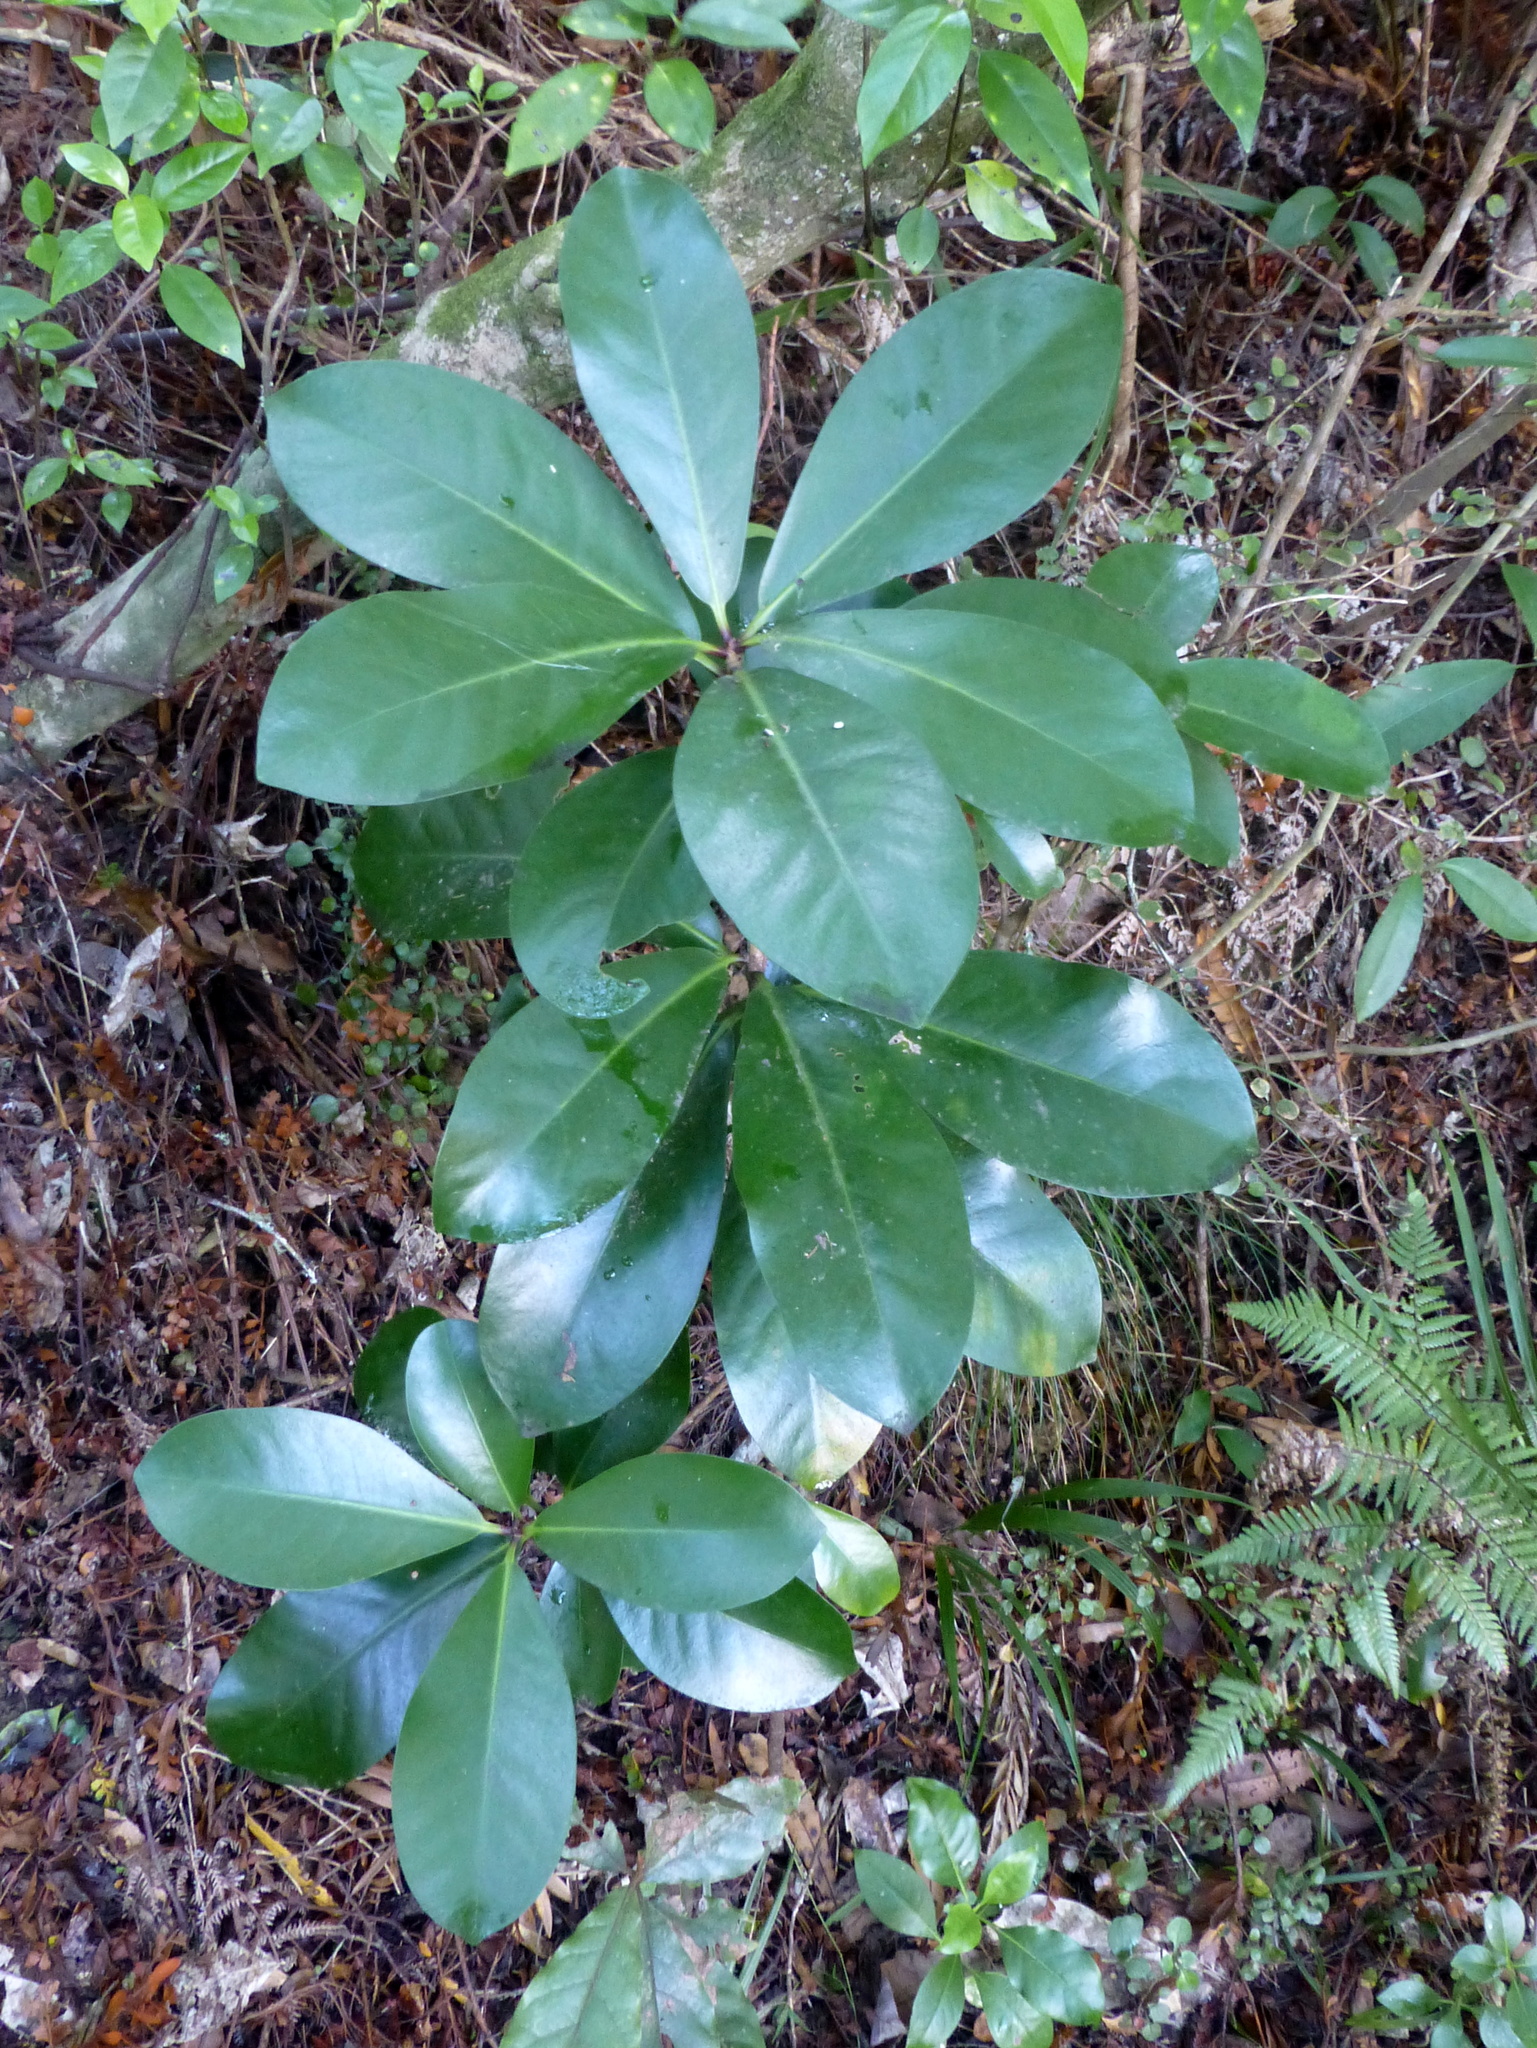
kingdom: Plantae
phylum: Tracheophyta
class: Magnoliopsida
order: Cucurbitales
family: Corynocarpaceae
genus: Corynocarpus
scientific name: Corynocarpus laevigatus
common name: New zealand laurel
